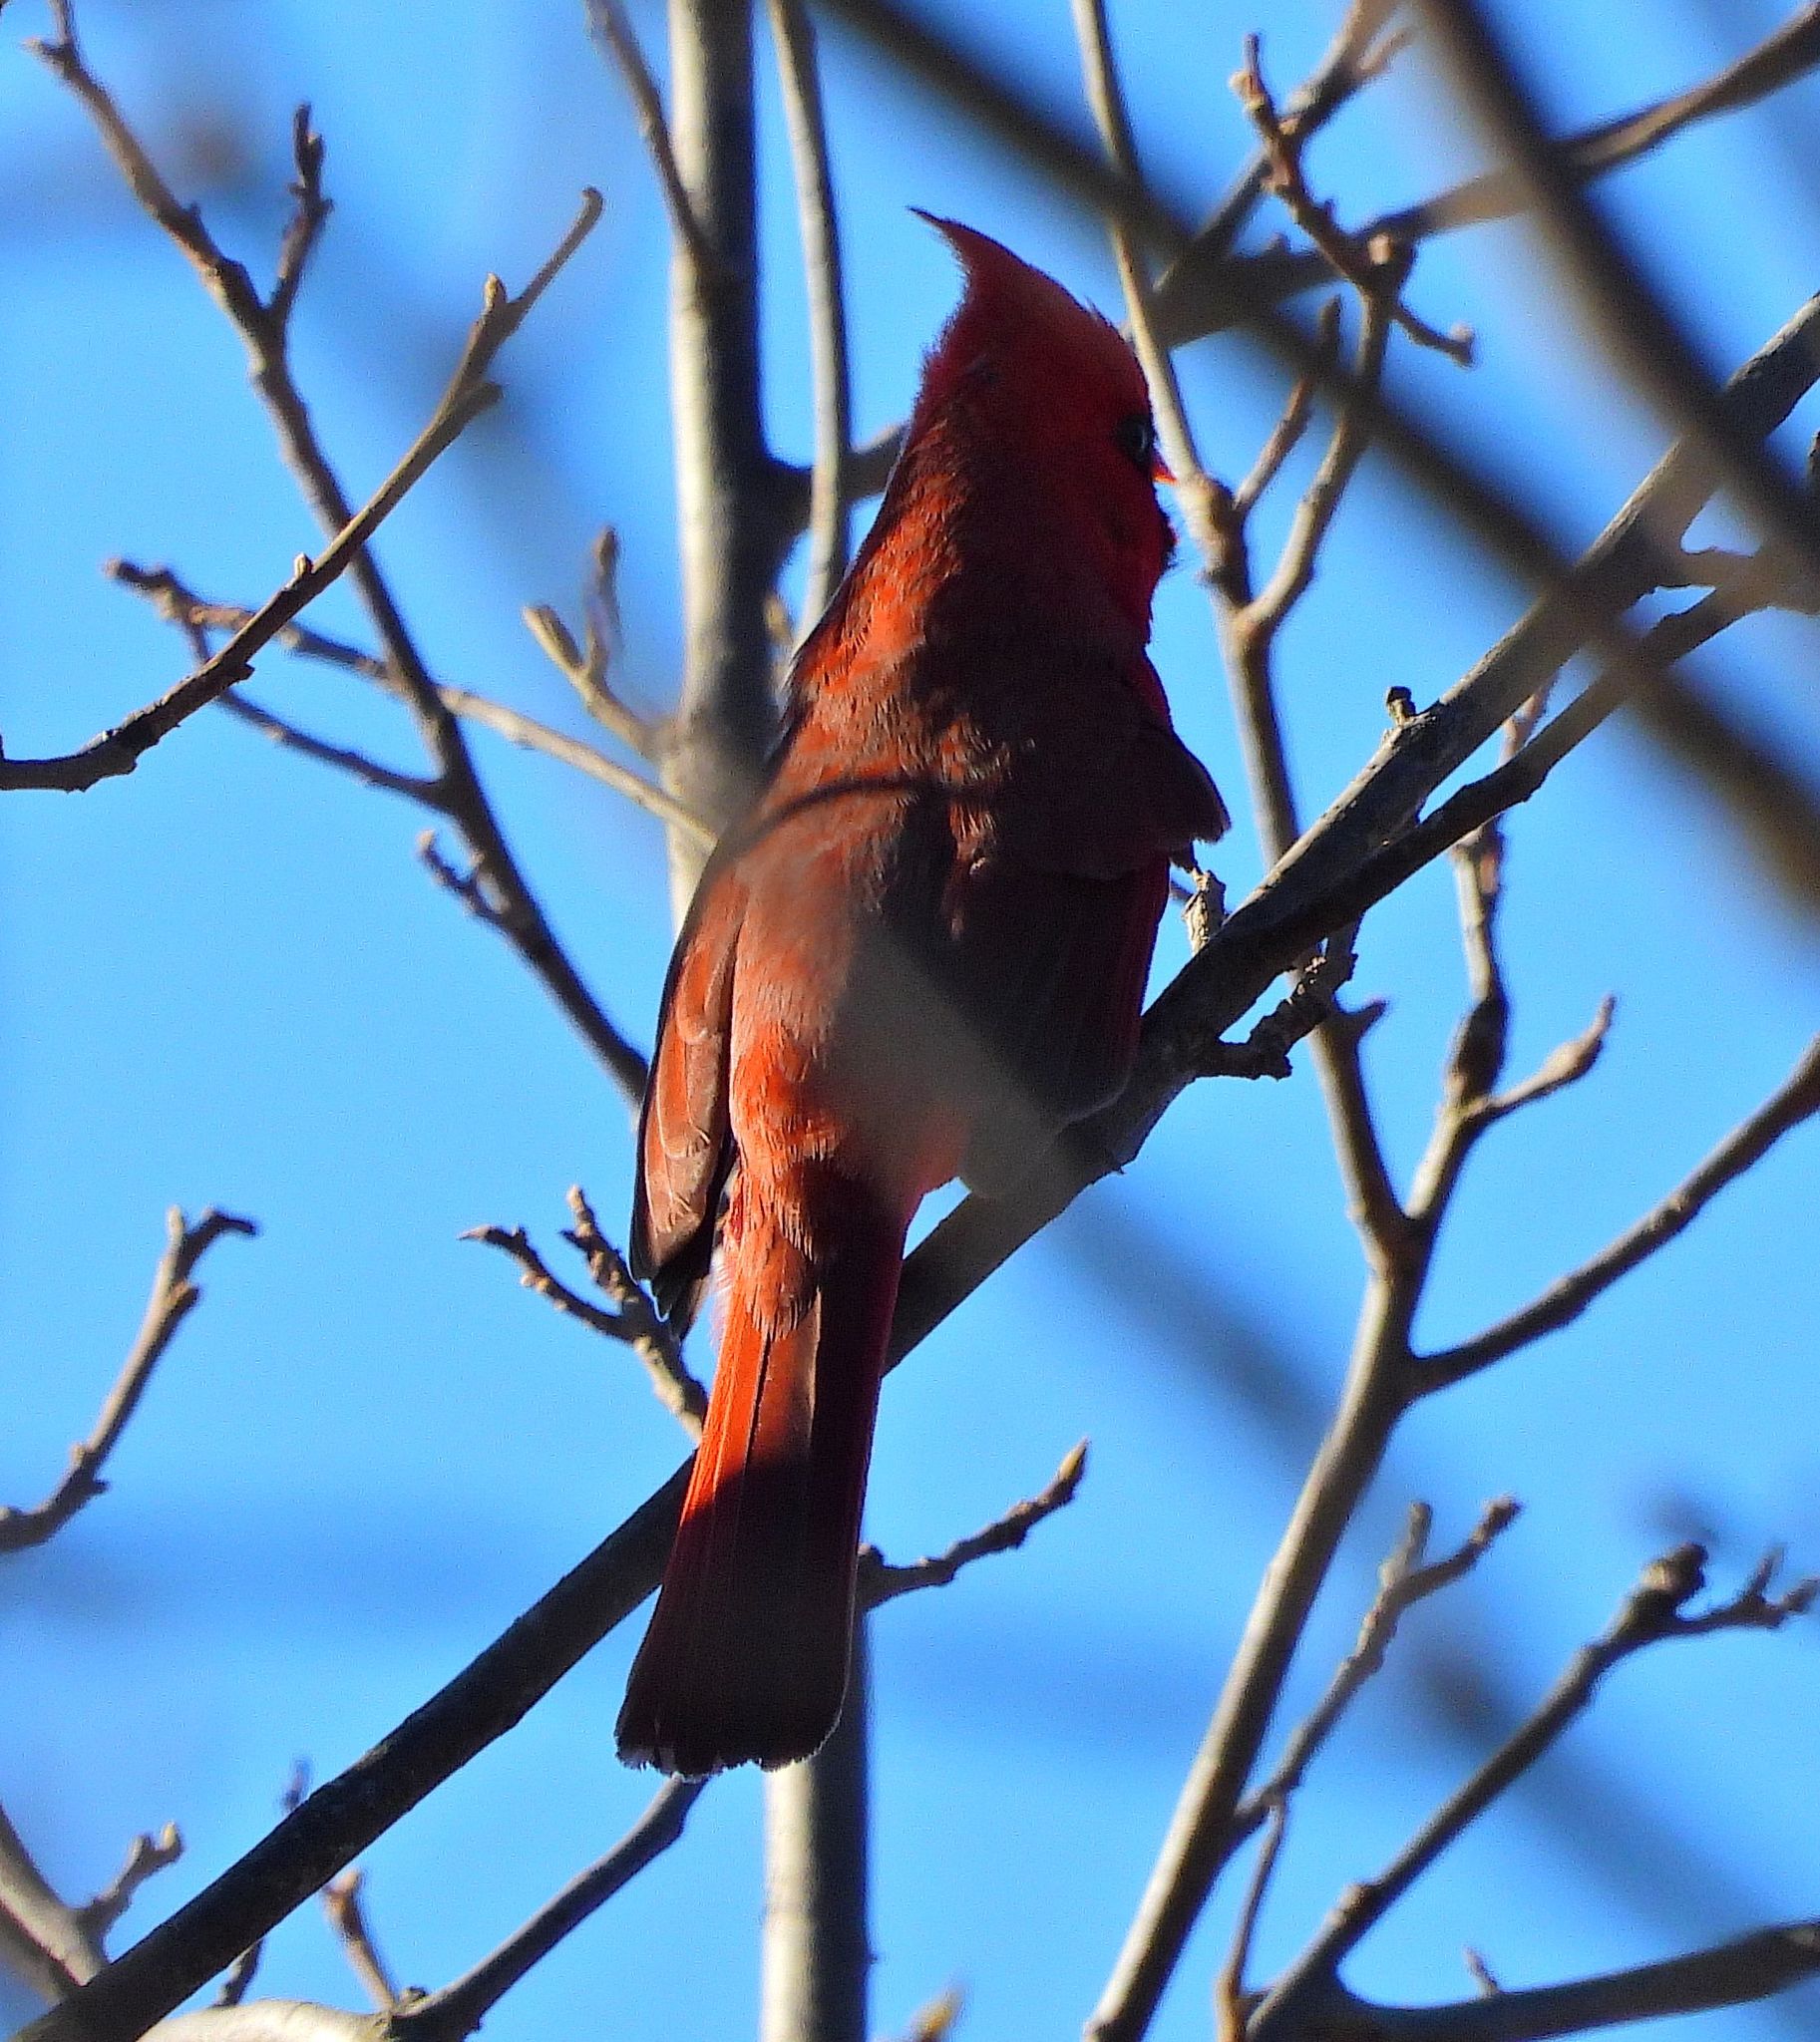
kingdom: Animalia
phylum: Chordata
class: Aves
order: Passeriformes
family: Cardinalidae
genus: Cardinalis
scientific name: Cardinalis cardinalis
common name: Northern cardinal
